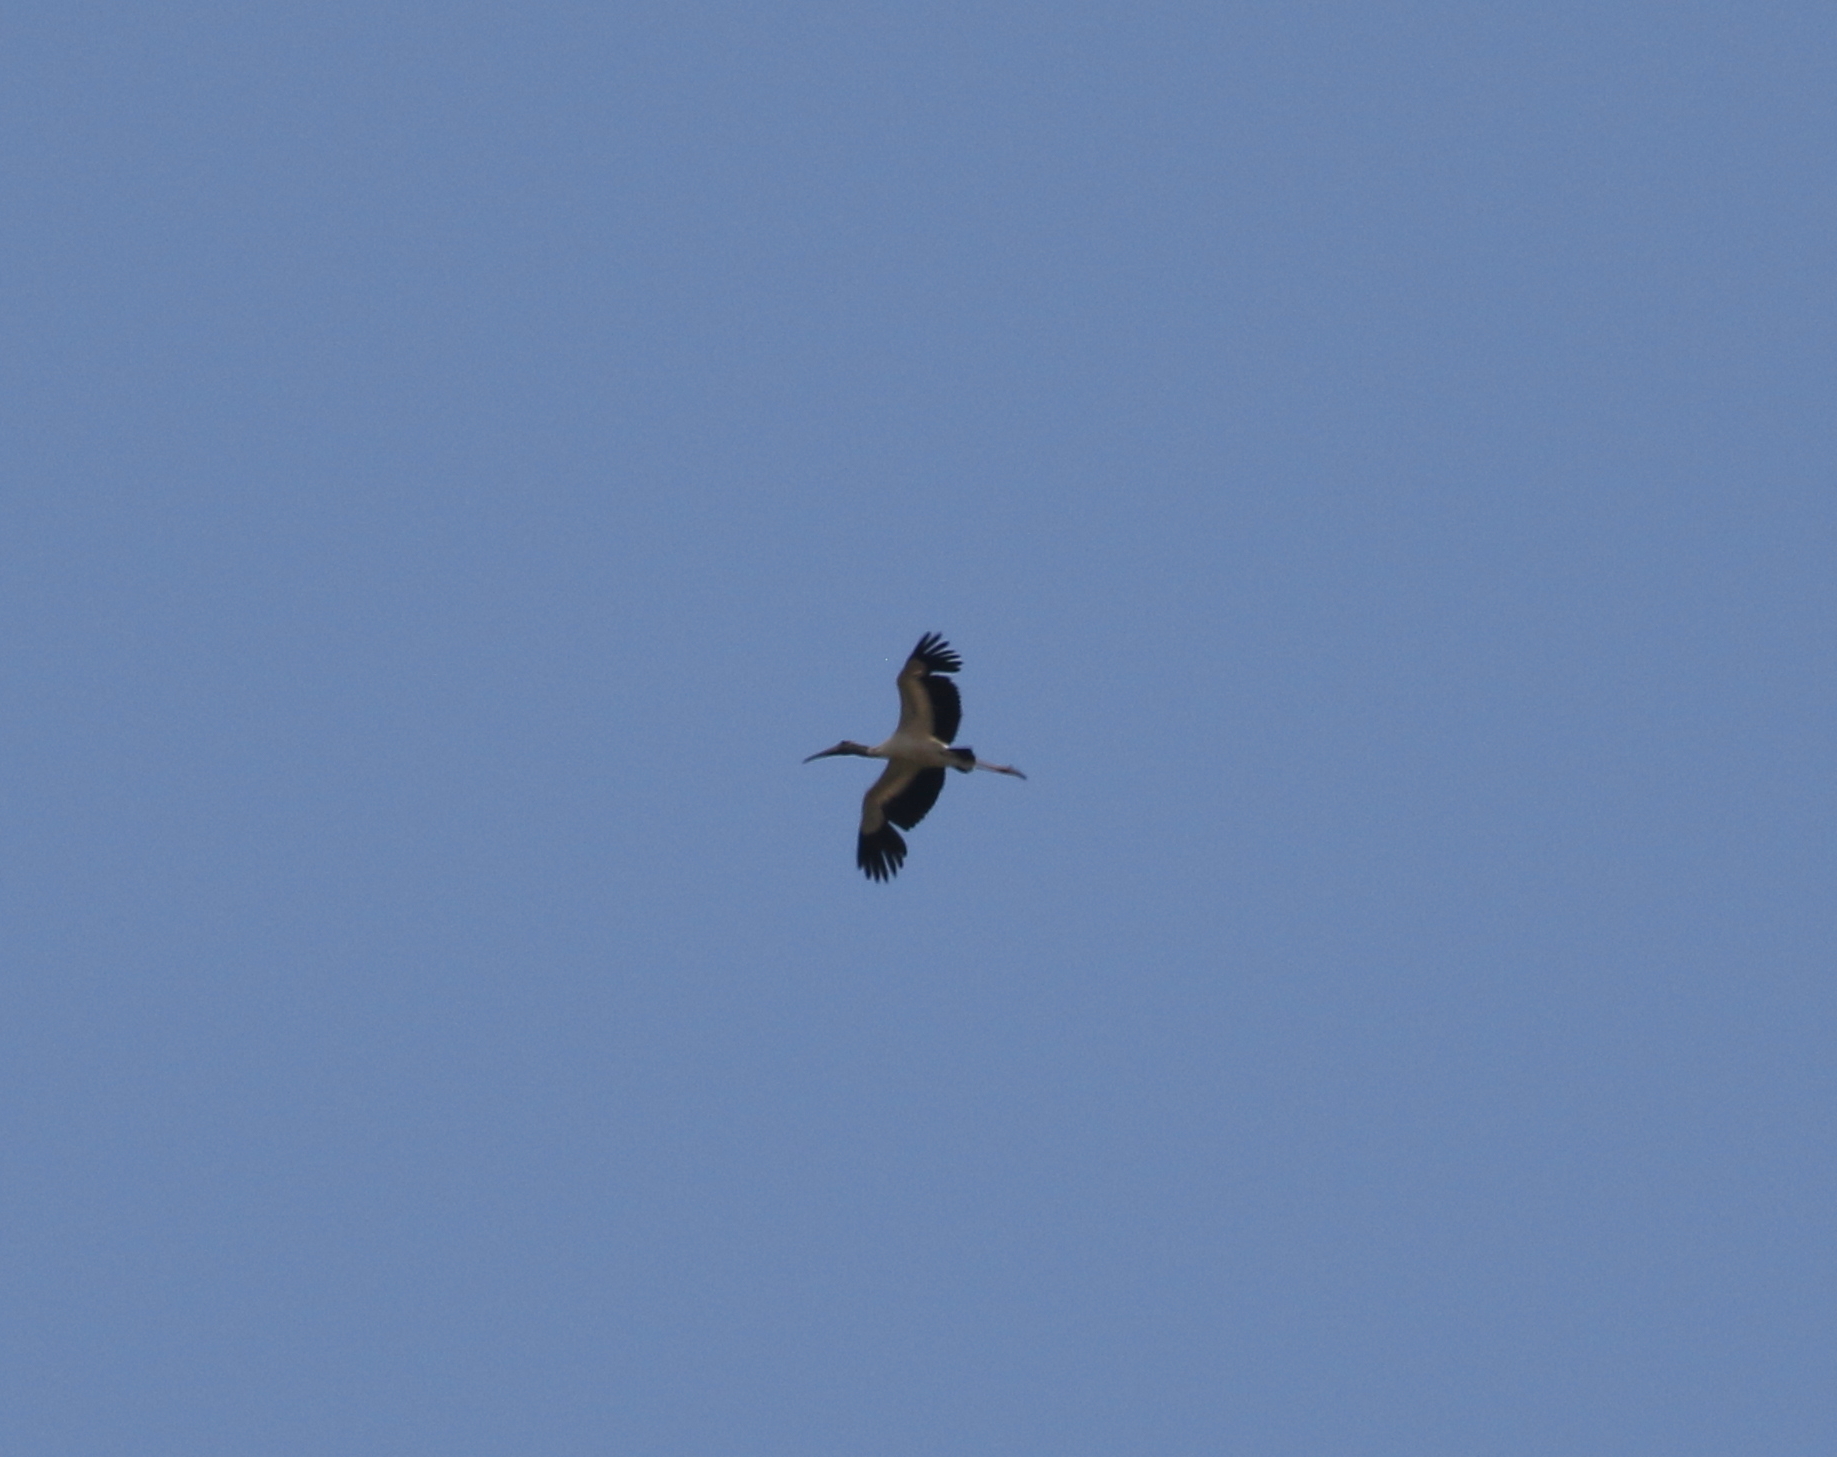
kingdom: Animalia
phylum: Chordata
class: Aves
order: Ciconiiformes
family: Ciconiidae
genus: Mycteria
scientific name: Mycteria americana
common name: Wood stork
